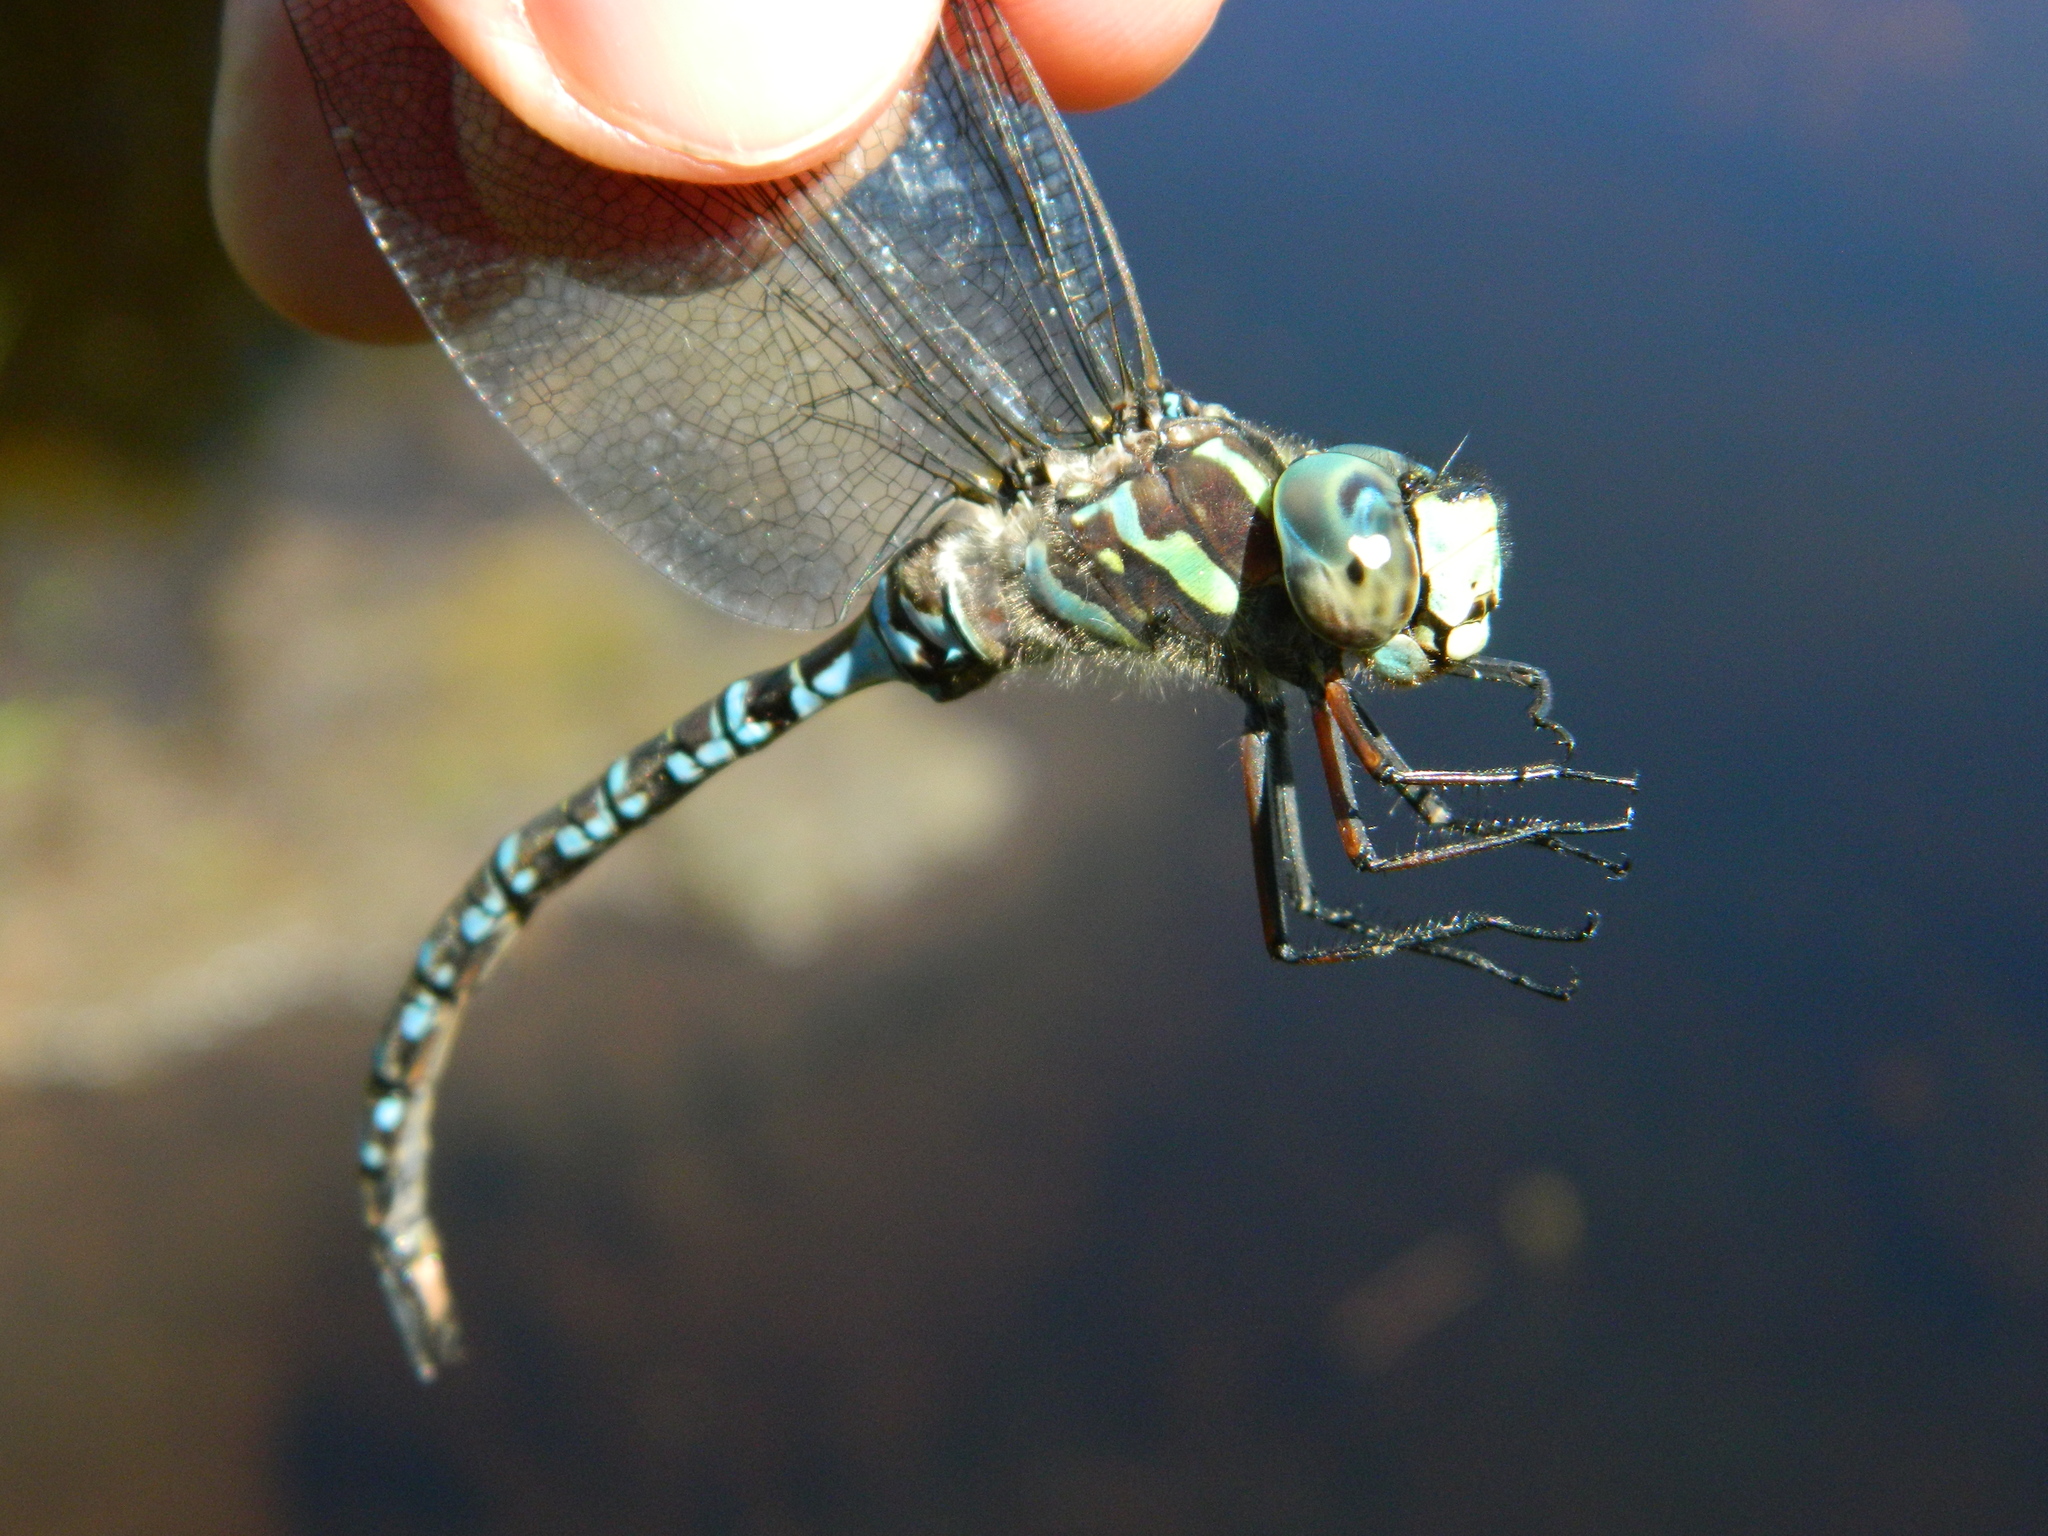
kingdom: Animalia
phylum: Arthropoda
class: Insecta
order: Odonata
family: Aeshnidae
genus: Aeshna
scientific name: Aeshna canadensis
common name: Canada darner
